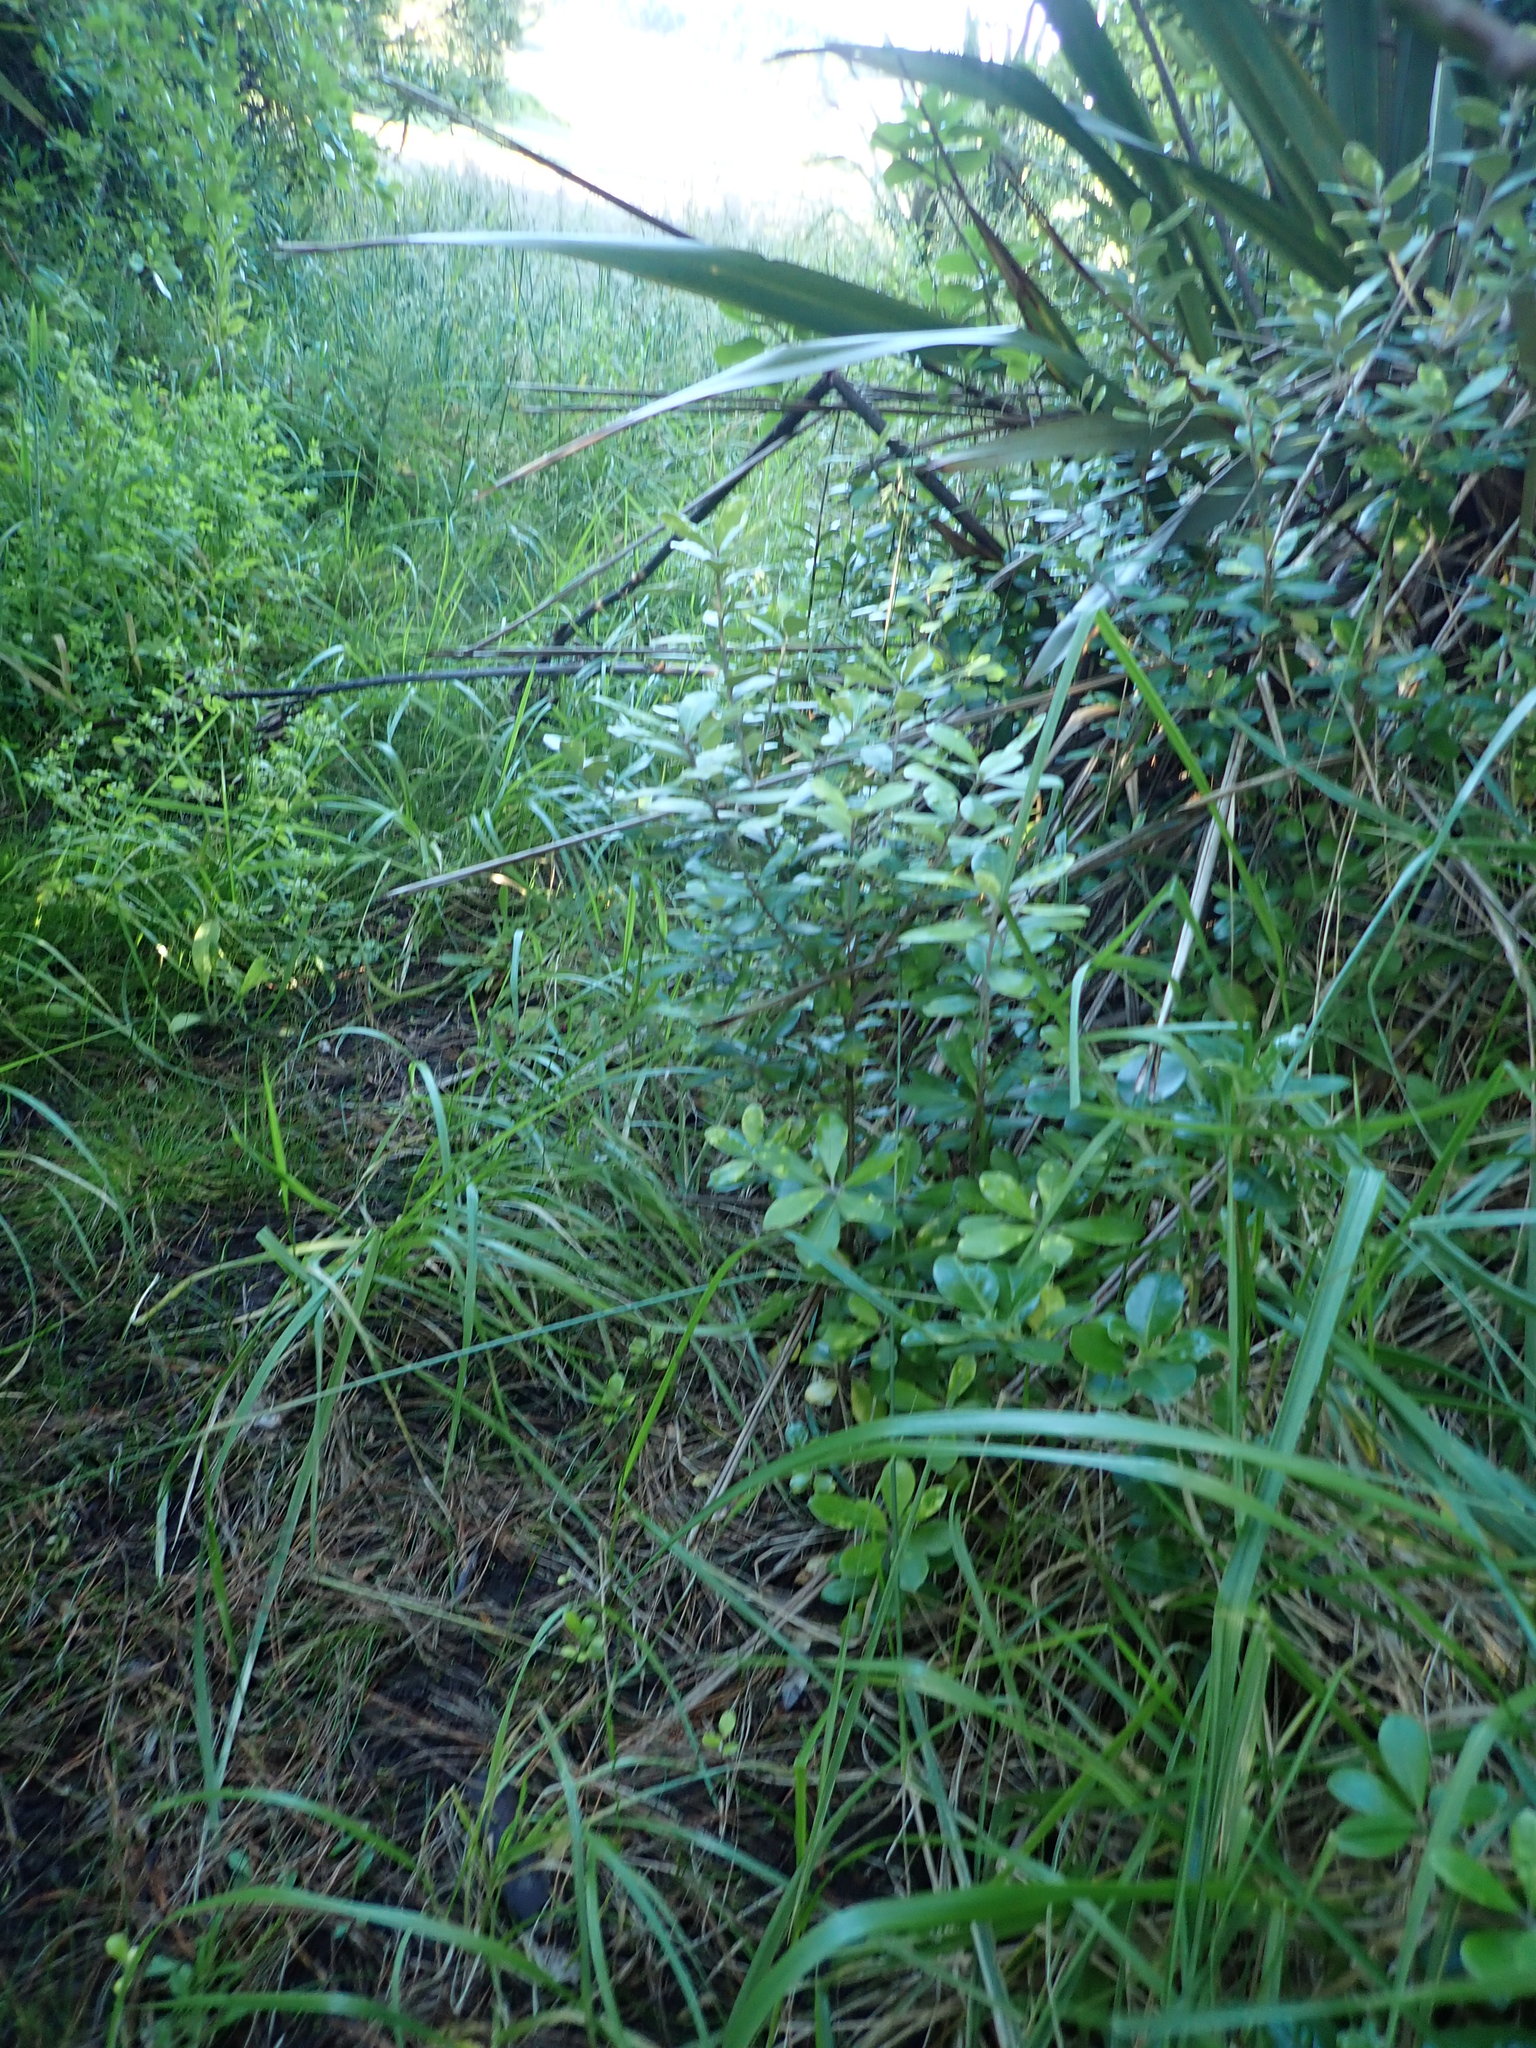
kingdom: Plantae
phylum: Tracheophyta
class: Magnoliopsida
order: Apiales
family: Pittosporaceae
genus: Pittosporum
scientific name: Pittosporum crassifolium
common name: Karo
